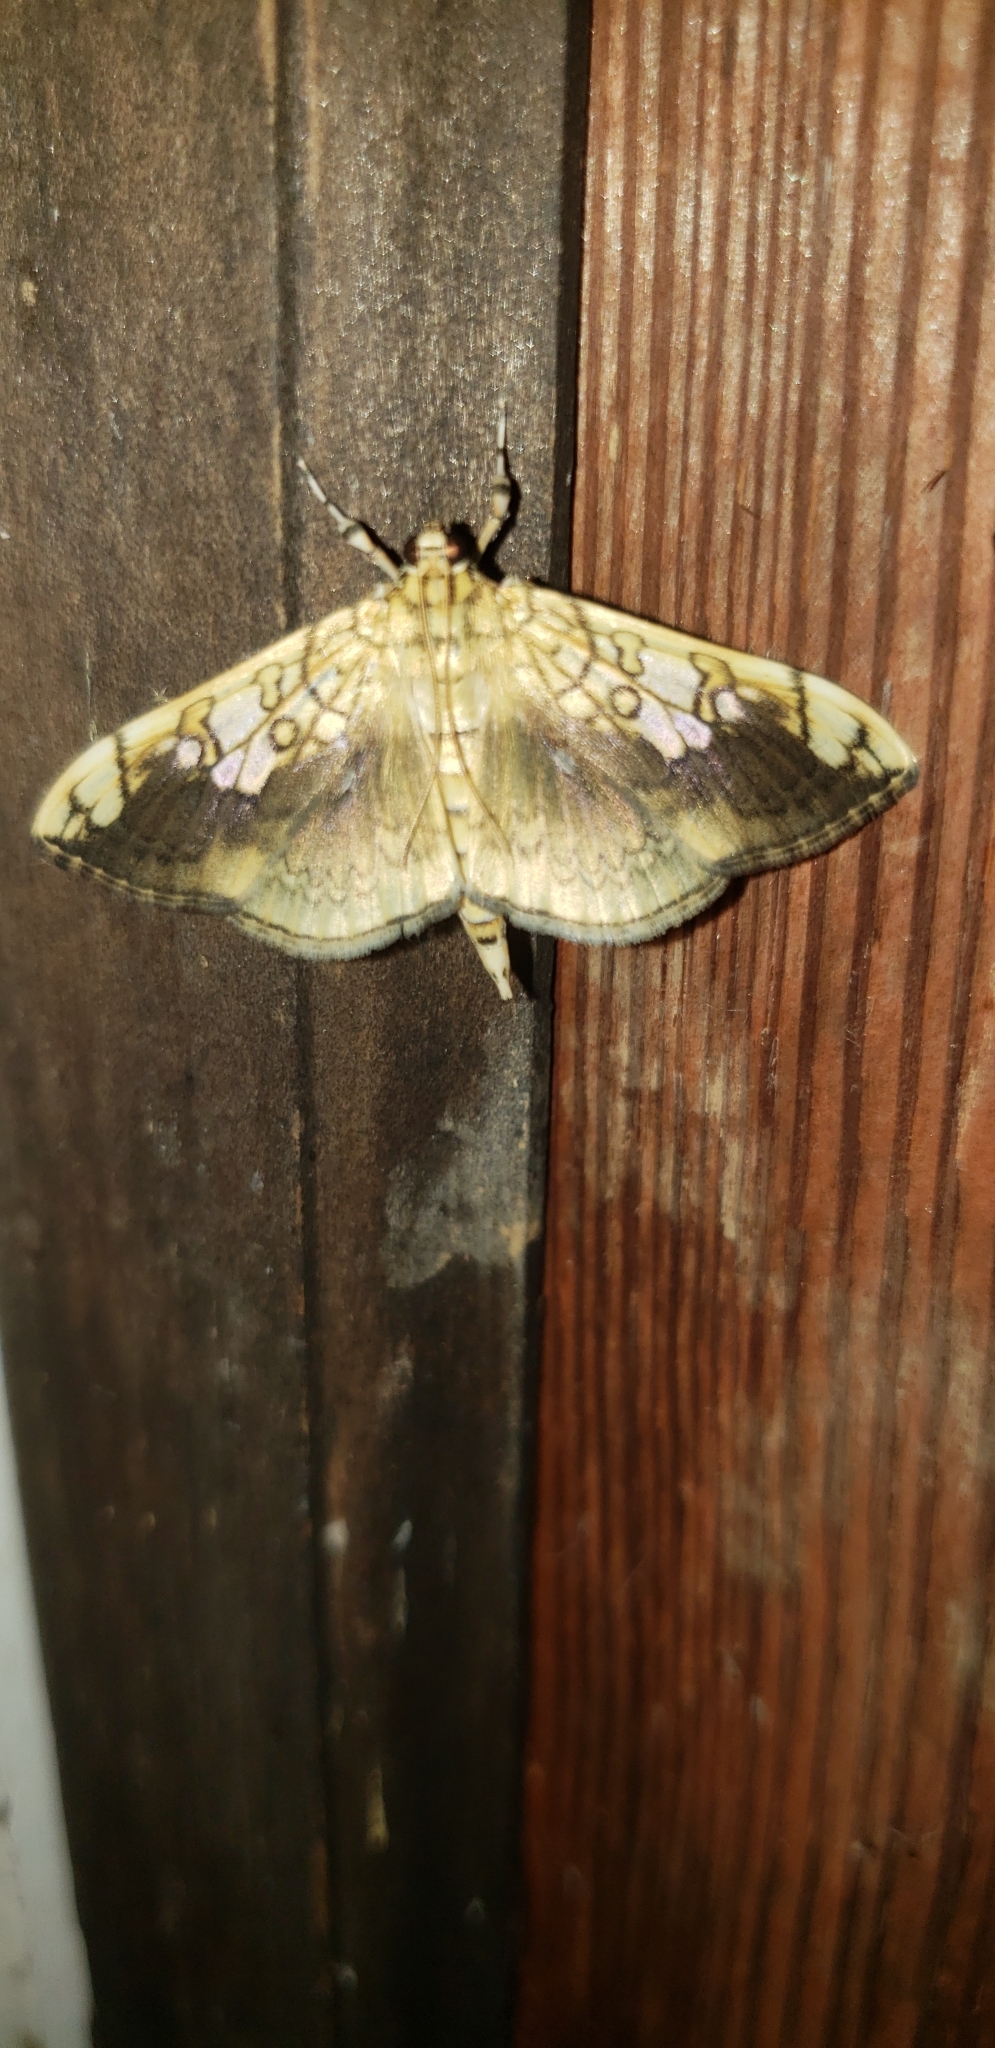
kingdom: Animalia
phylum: Arthropoda
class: Insecta
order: Lepidoptera
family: Crambidae
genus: Pantographa
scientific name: Pantographa limata
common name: Basswood leafroller moth
